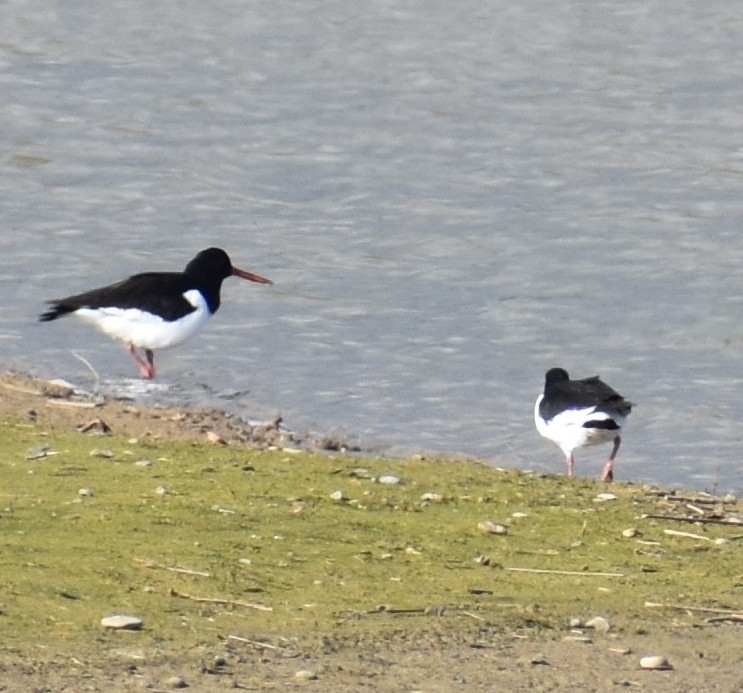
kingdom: Animalia
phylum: Chordata
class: Aves
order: Charadriiformes
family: Haematopodidae
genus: Haematopus
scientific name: Haematopus ostralegus
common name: Eurasian oystercatcher
